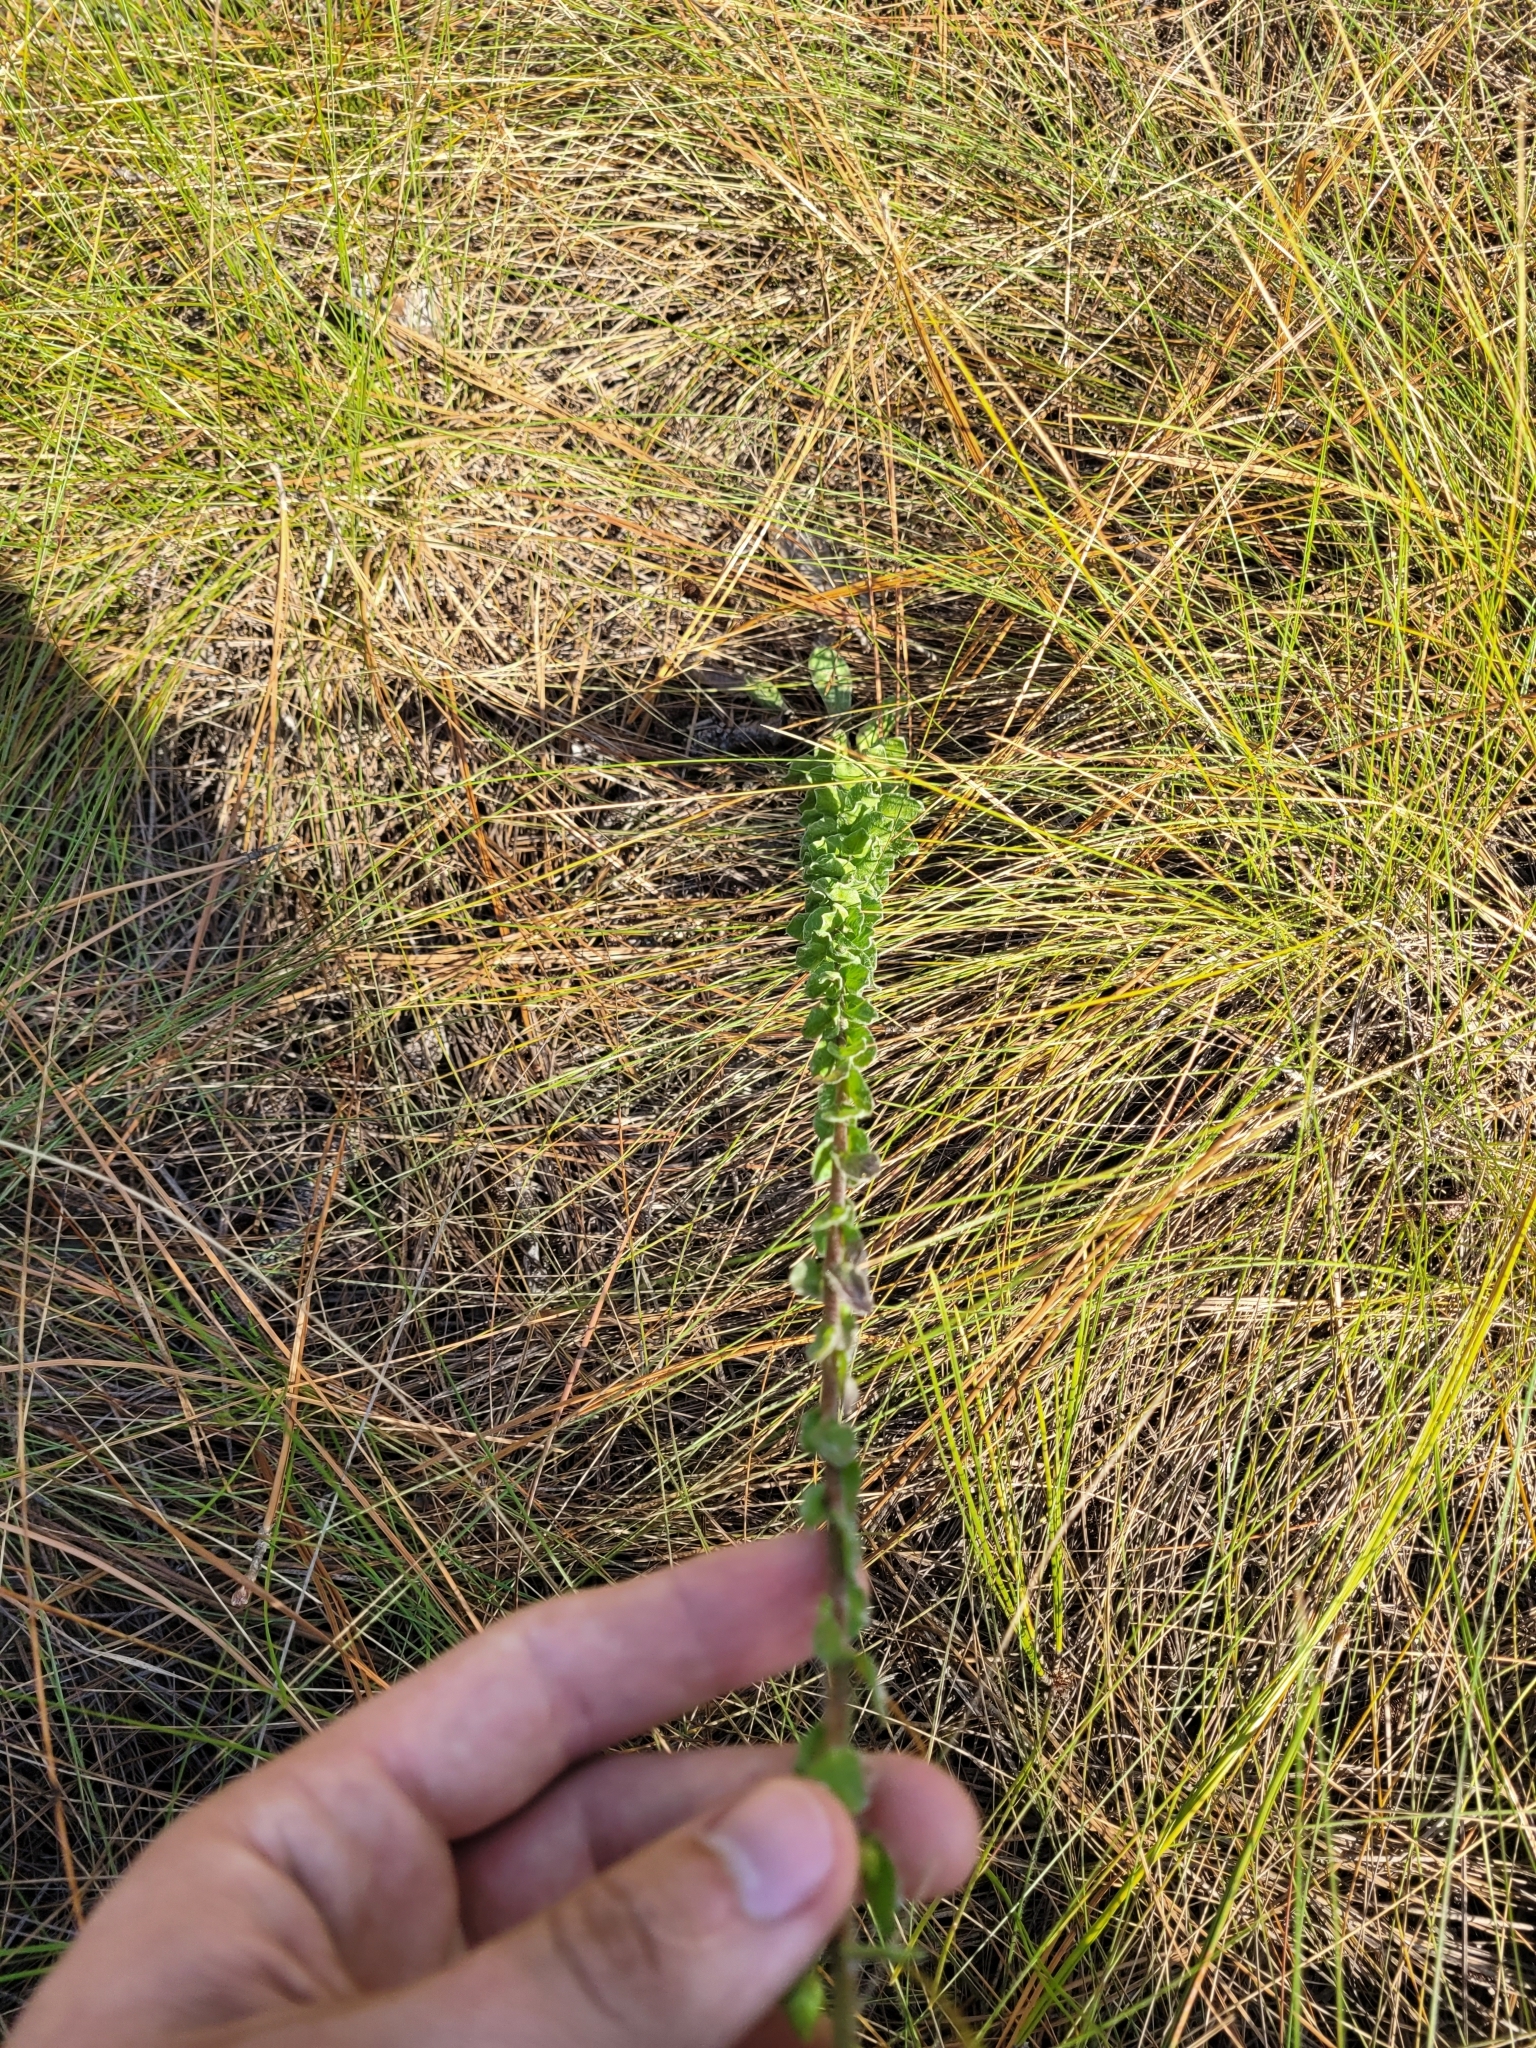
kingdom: Plantae
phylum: Tracheophyta
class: Magnoliopsida
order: Asterales
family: Asteraceae
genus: Chrysopsis
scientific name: Chrysopsis gossypina
